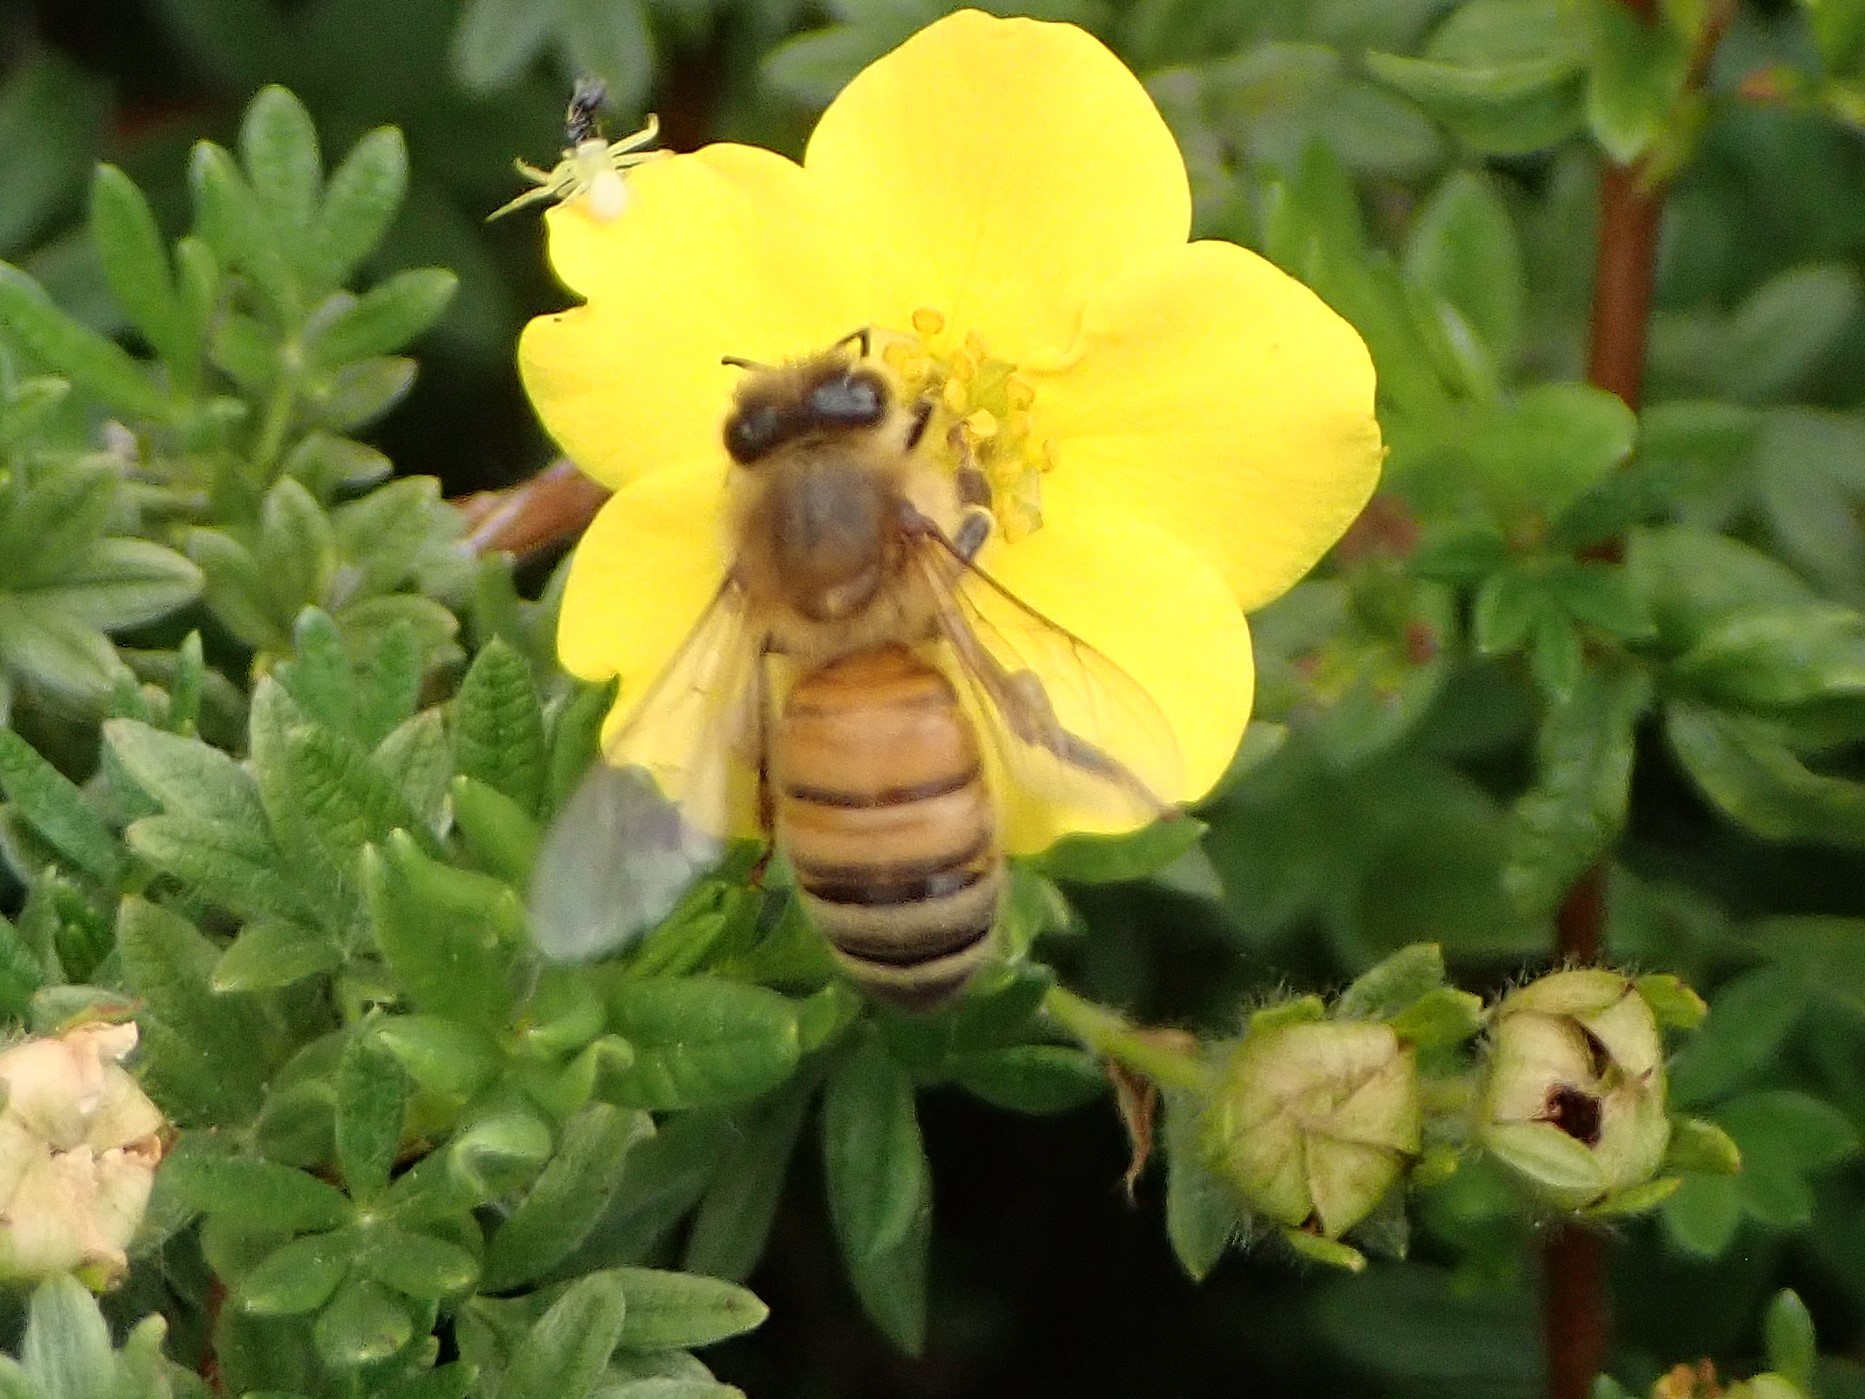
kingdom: Animalia
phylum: Arthropoda
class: Insecta
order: Hymenoptera
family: Apidae
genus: Apis
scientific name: Apis mellifera
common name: Honey bee
